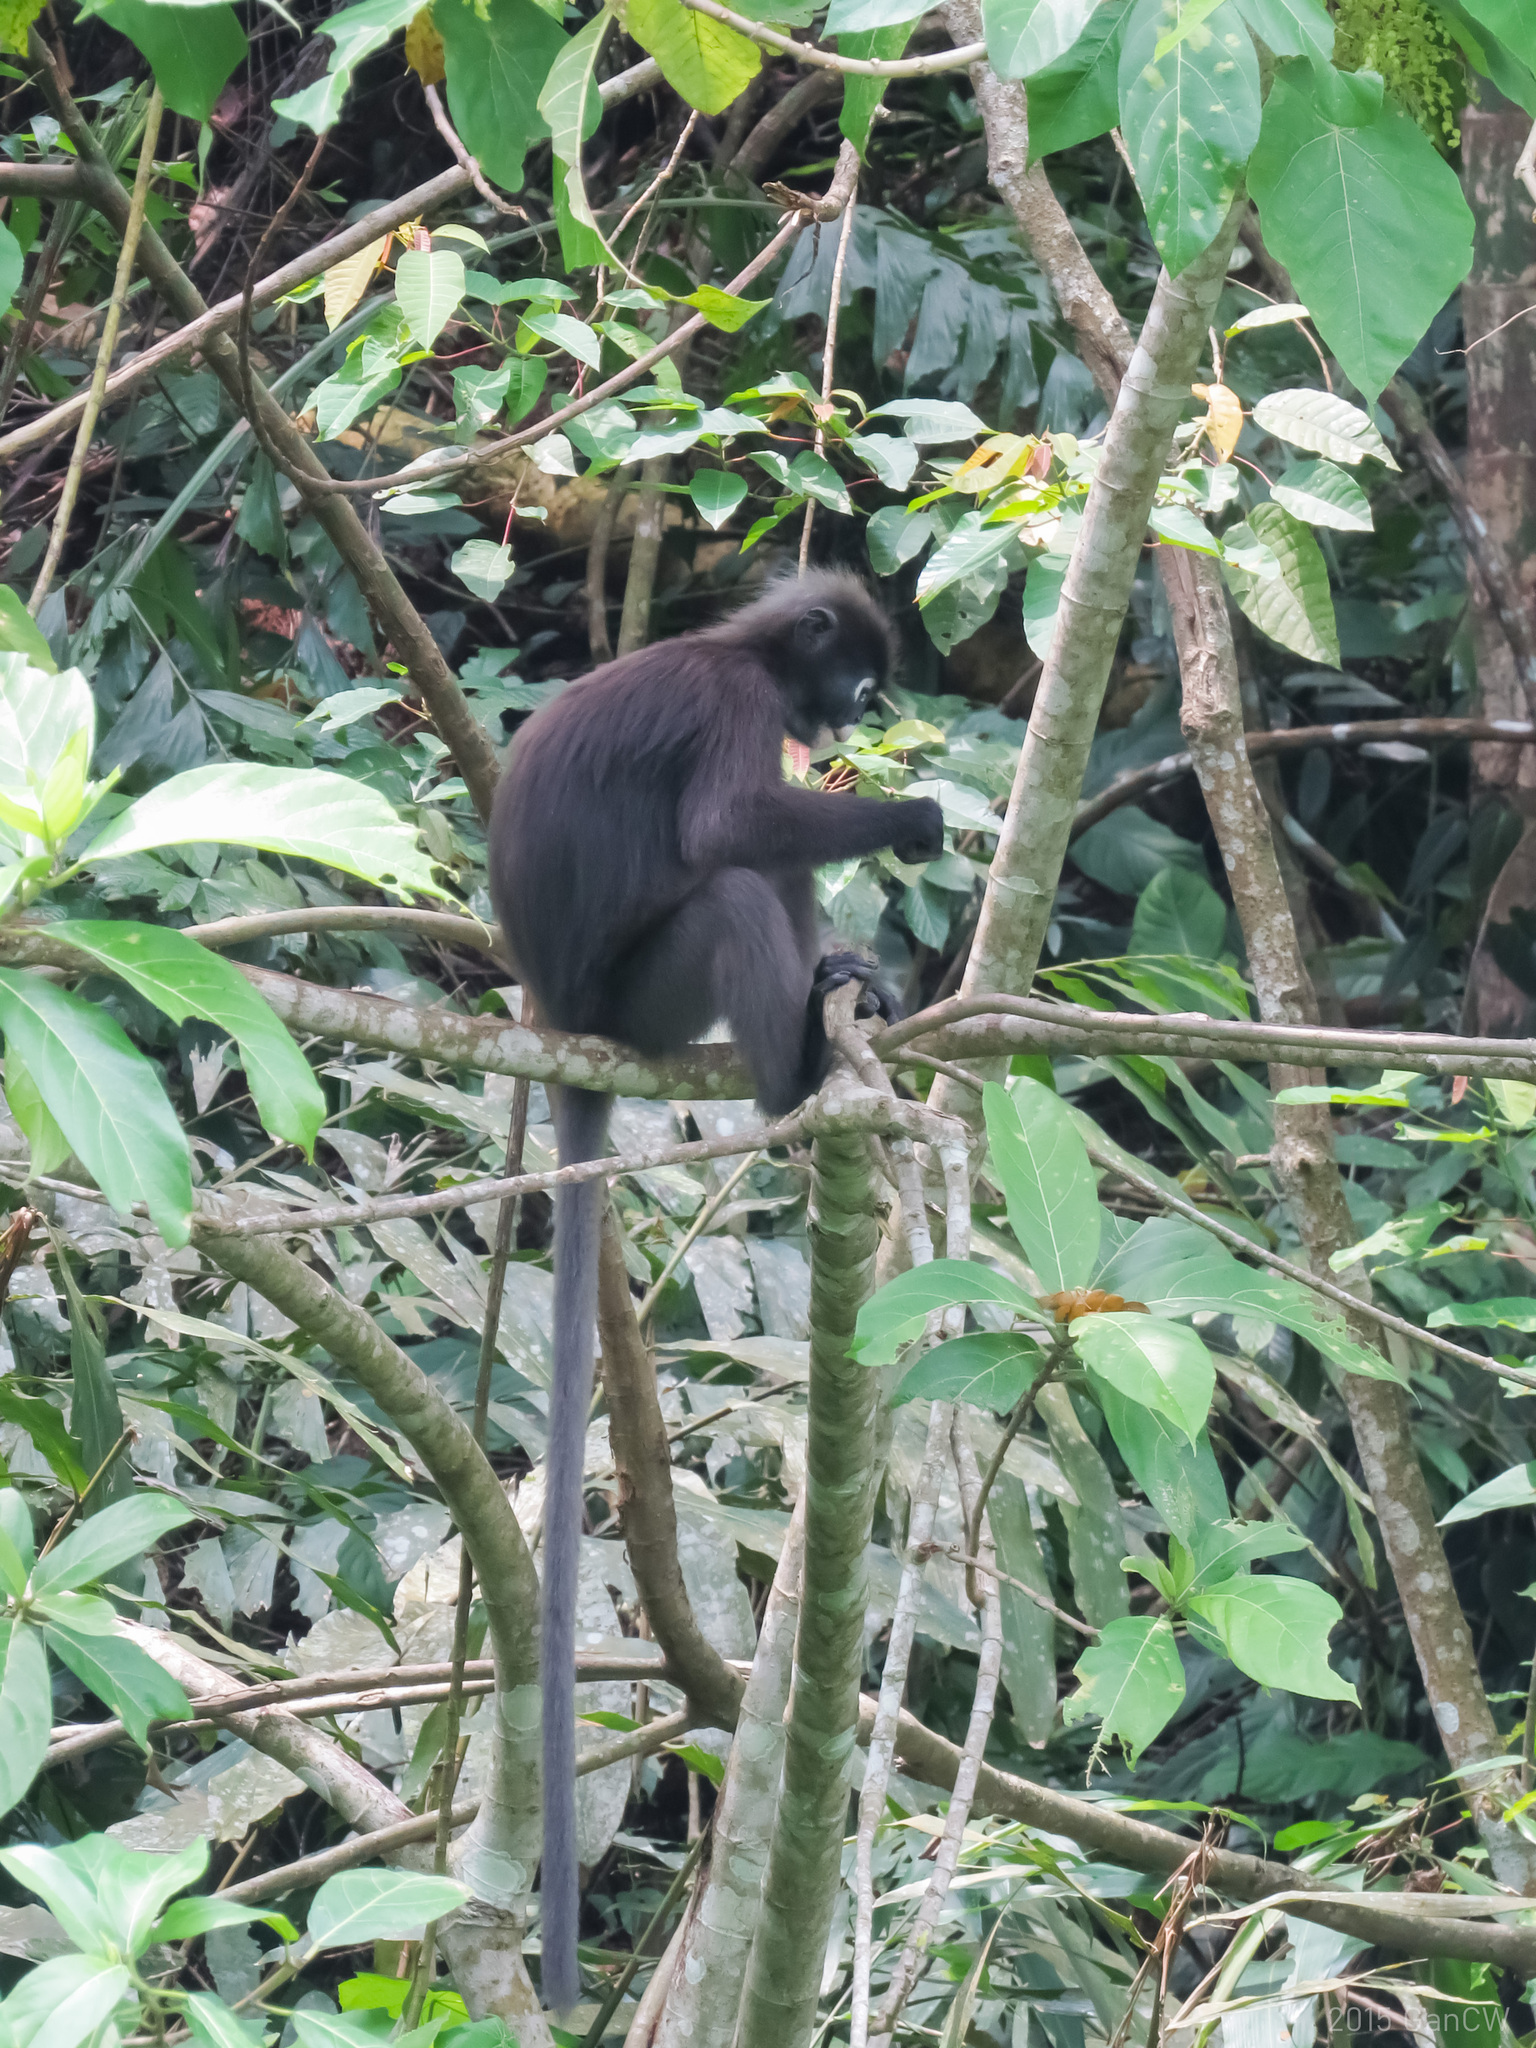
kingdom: Animalia
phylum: Chordata
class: Mammalia
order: Primates
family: Cercopithecidae
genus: Trachypithecus
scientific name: Trachypithecus obscurus
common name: Dusky leaf-monkey
